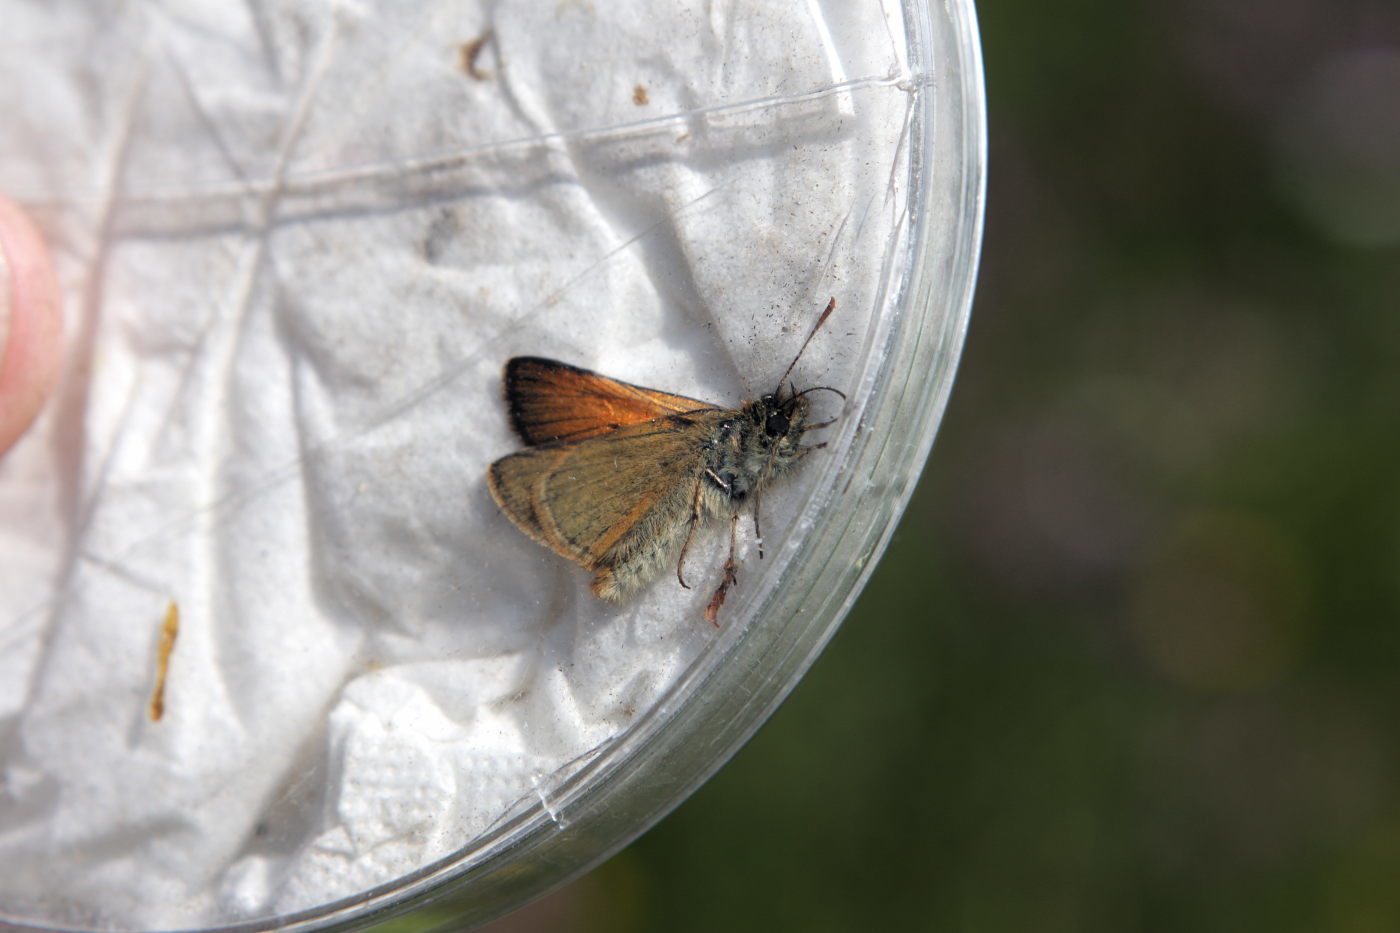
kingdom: Animalia
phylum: Arthropoda
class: Insecta
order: Lepidoptera
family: Hesperiidae
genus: Thymelicus
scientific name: Thymelicus sylvestris
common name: Small skipper
